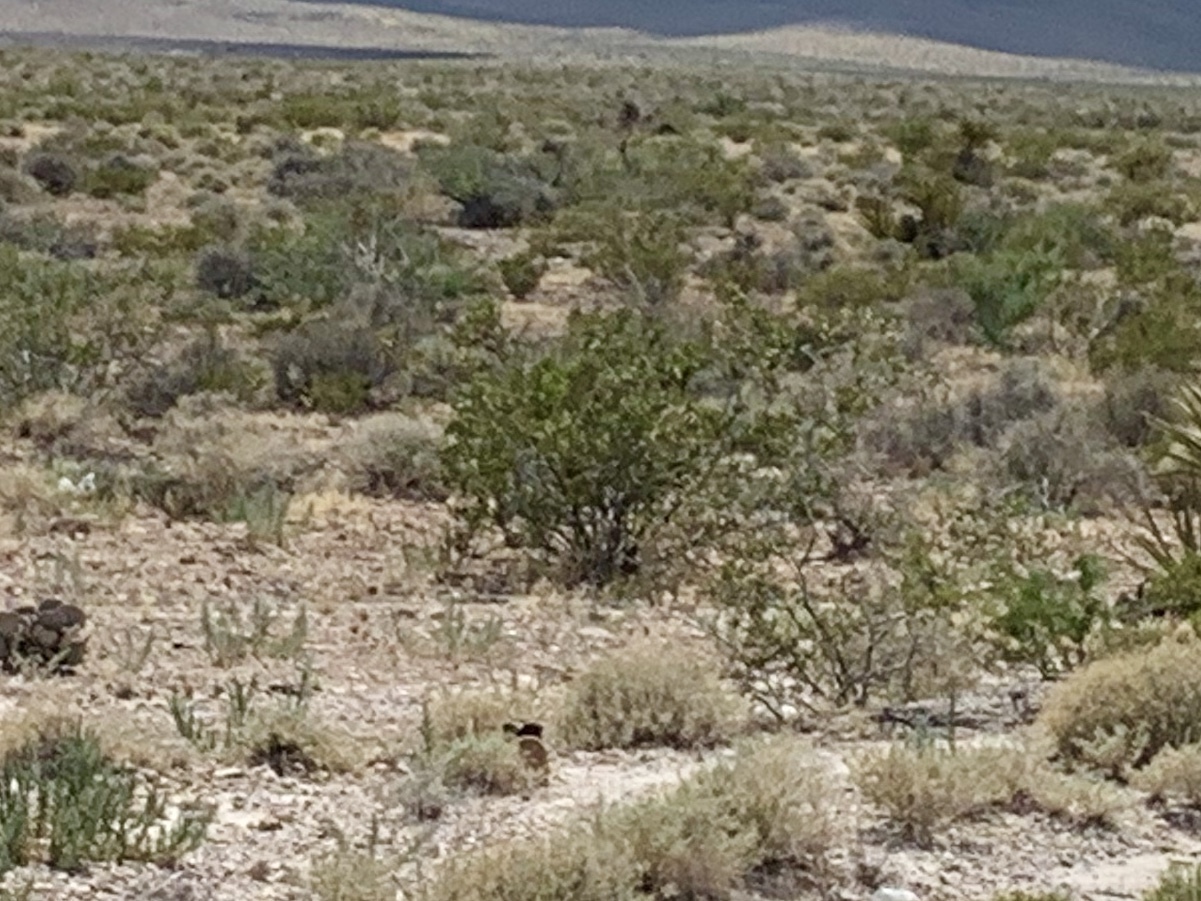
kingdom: Plantae
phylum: Tracheophyta
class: Magnoliopsida
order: Zygophyllales
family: Zygophyllaceae
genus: Larrea
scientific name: Larrea tridentata
